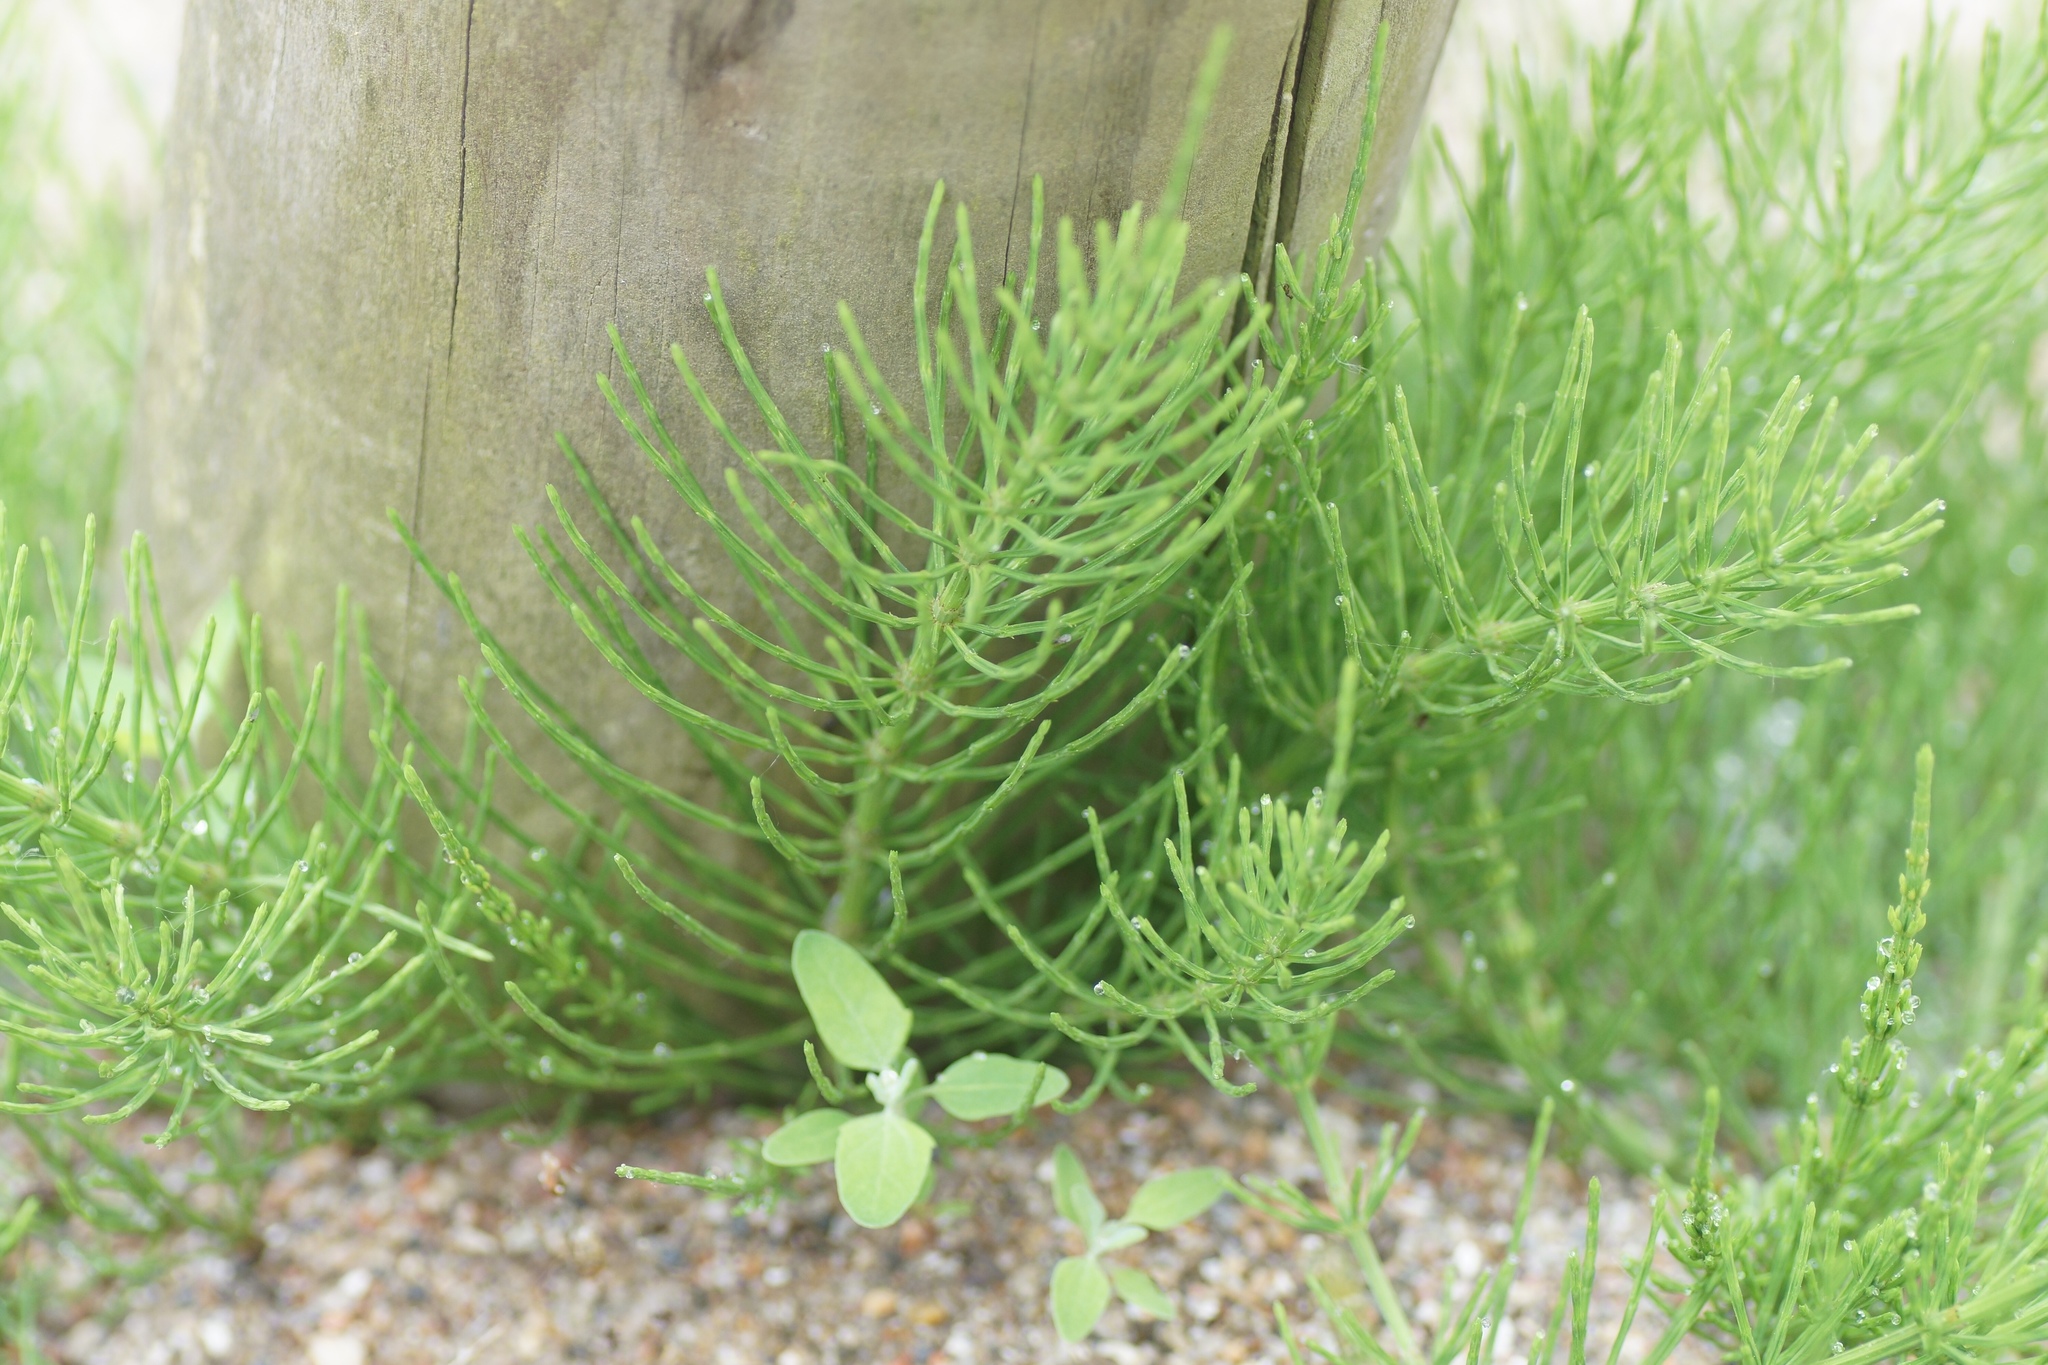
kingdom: Plantae
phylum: Tracheophyta
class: Polypodiopsida
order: Equisetales
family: Equisetaceae
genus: Equisetum
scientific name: Equisetum arvense
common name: Field horsetail
